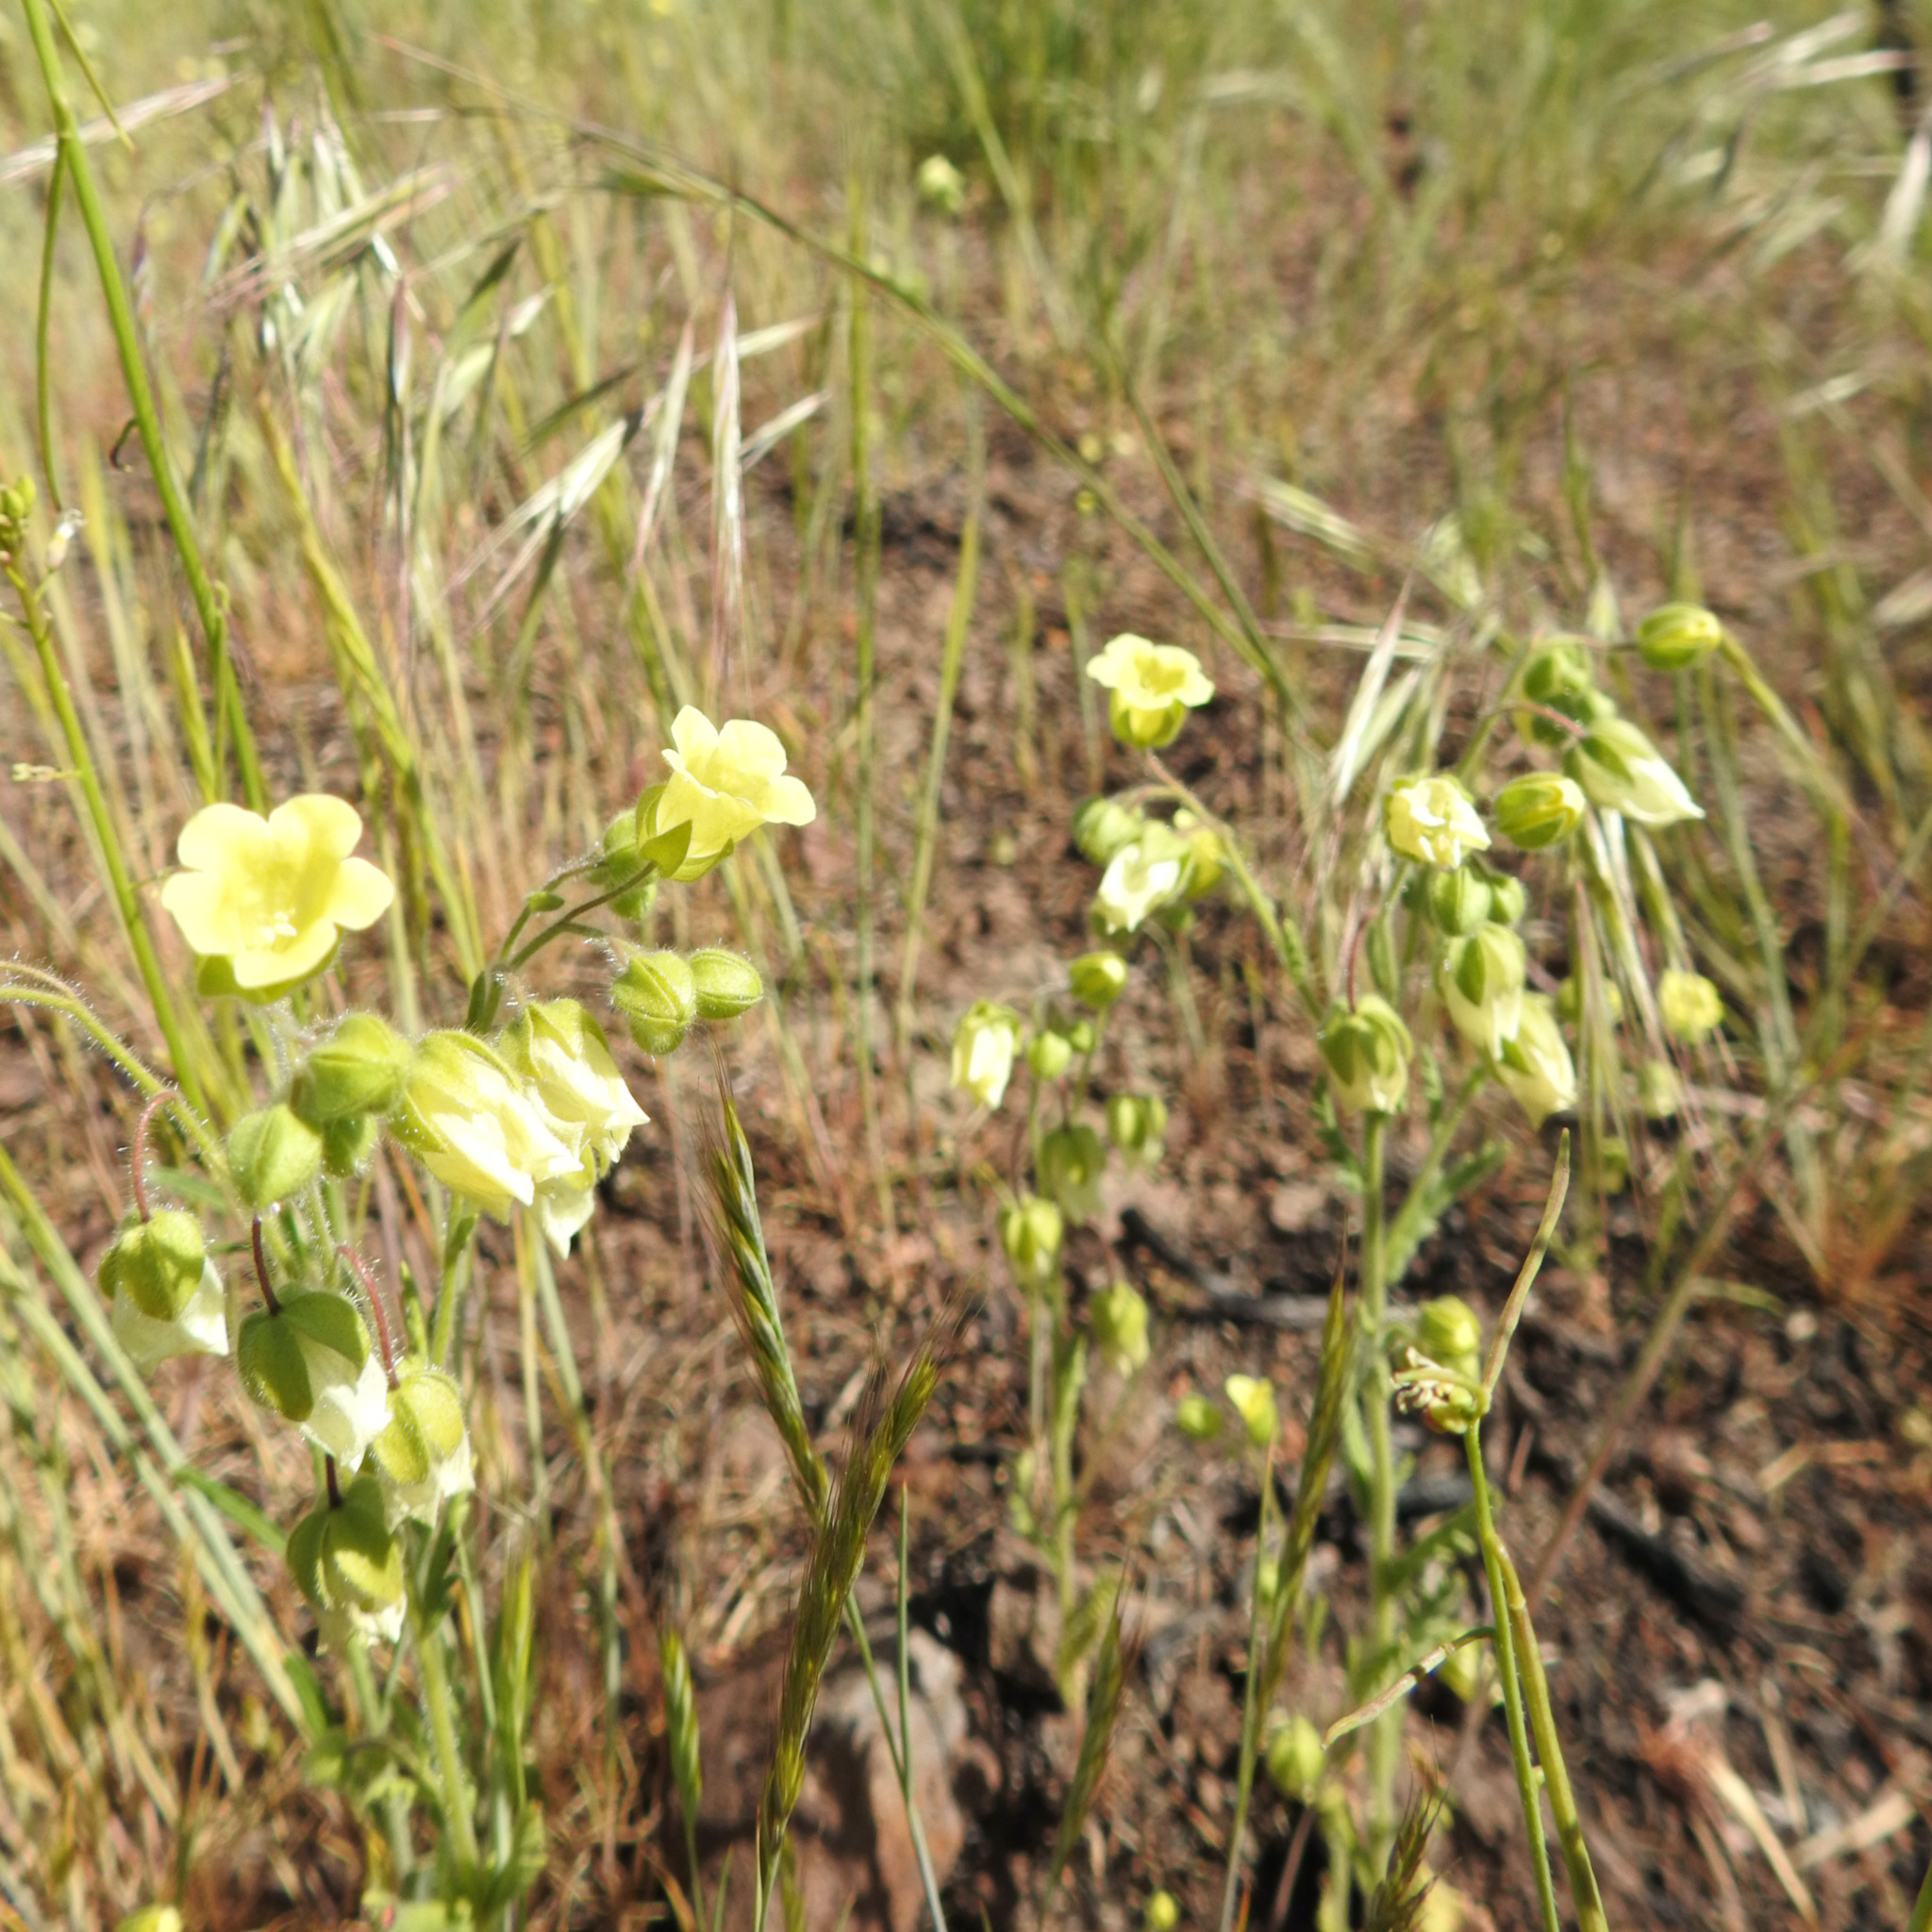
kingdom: Plantae
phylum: Tracheophyta
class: Magnoliopsida
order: Boraginales
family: Hydrophyllaceae
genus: Emmenanthe
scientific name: Emmenanthe penduliflora
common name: Whispering-bells
